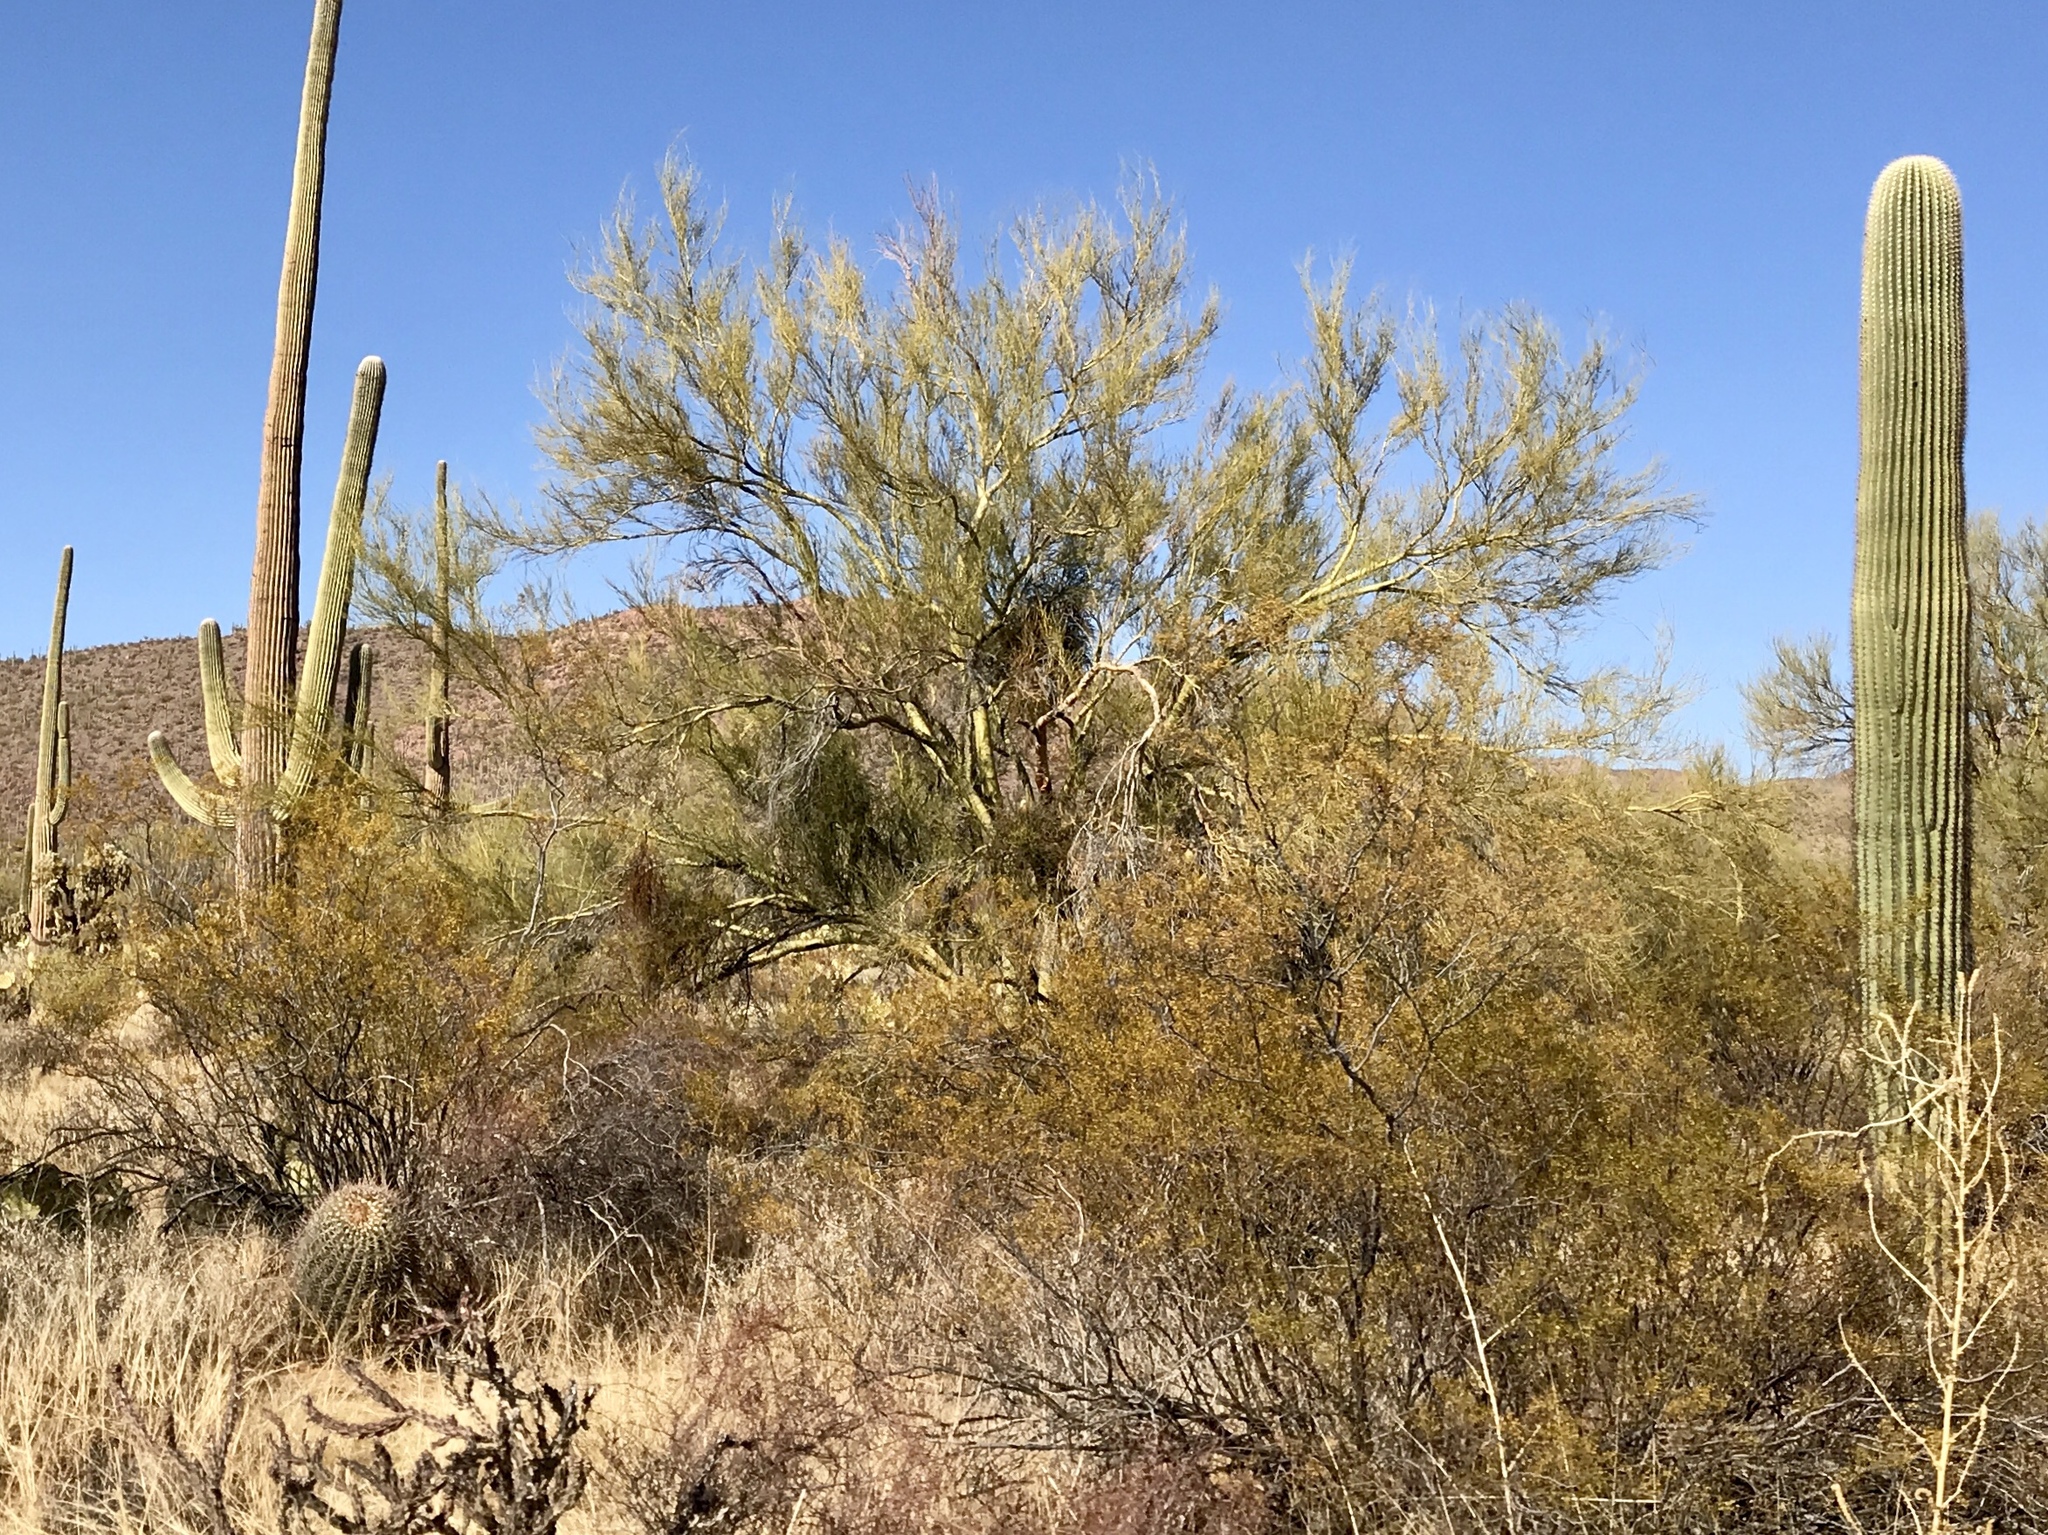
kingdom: Plantae
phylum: Tracheophyta
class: Magnoliopsida
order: Zygophyllales
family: Zygophyllaceae
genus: Larrea
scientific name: Larrea tridentata
